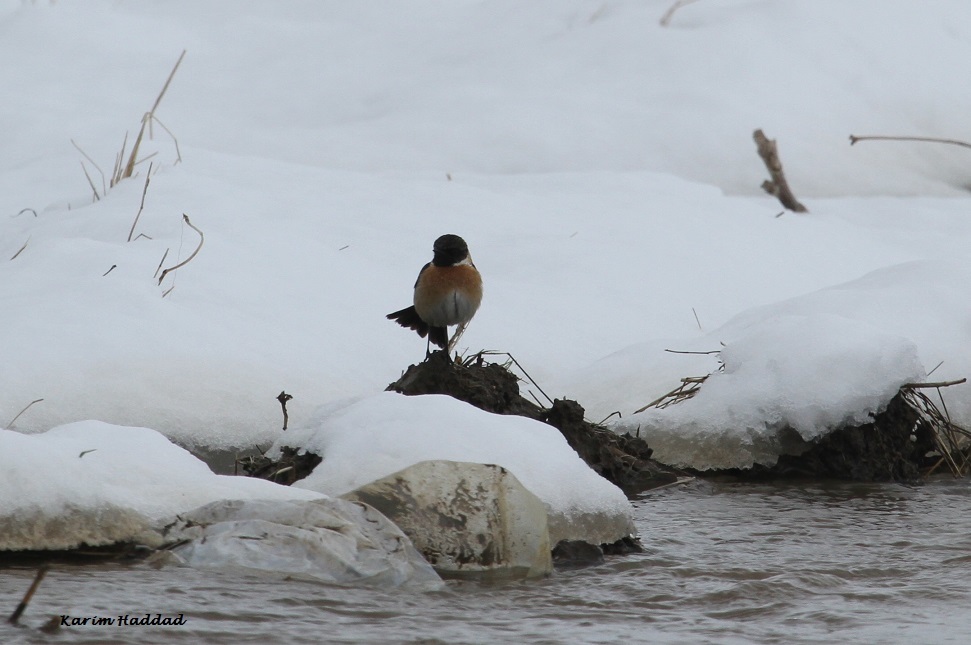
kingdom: Animalia
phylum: Chordata
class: Aves
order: Passeriformes
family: Muscicapidae
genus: Saxicola
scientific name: Saxicola rubicola
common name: European stonechat
